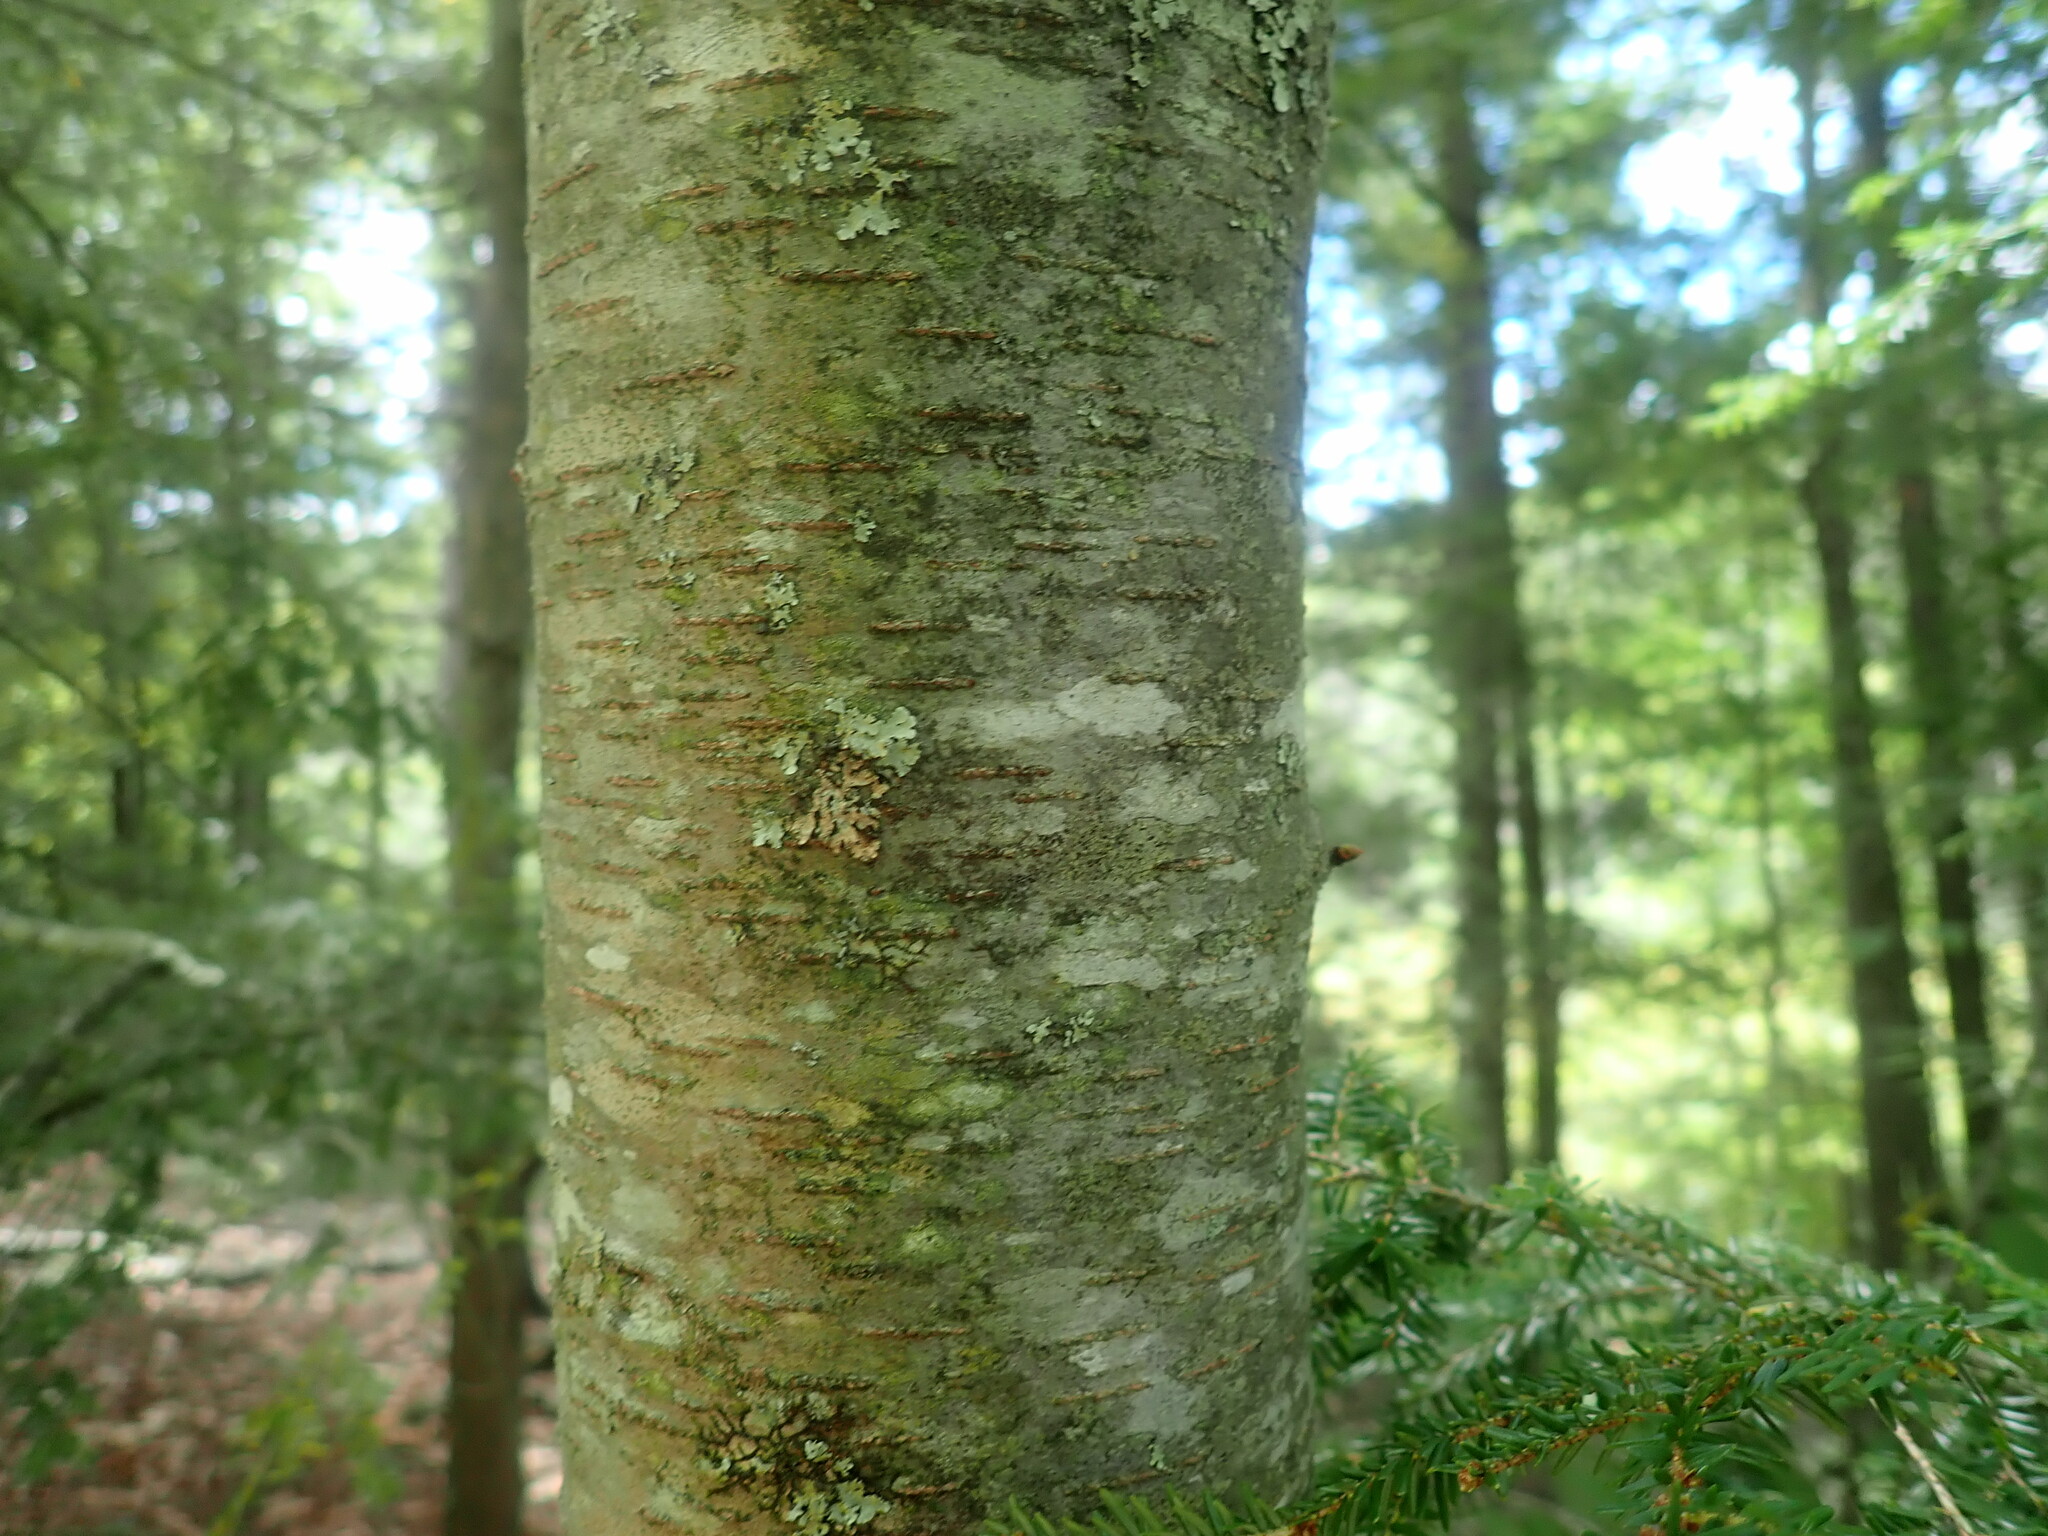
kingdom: Plantae
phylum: Tracheophyta
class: Magnoliopsida
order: Fagales
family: Betulaceae
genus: Betula
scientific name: Betula lenta
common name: Black birch
